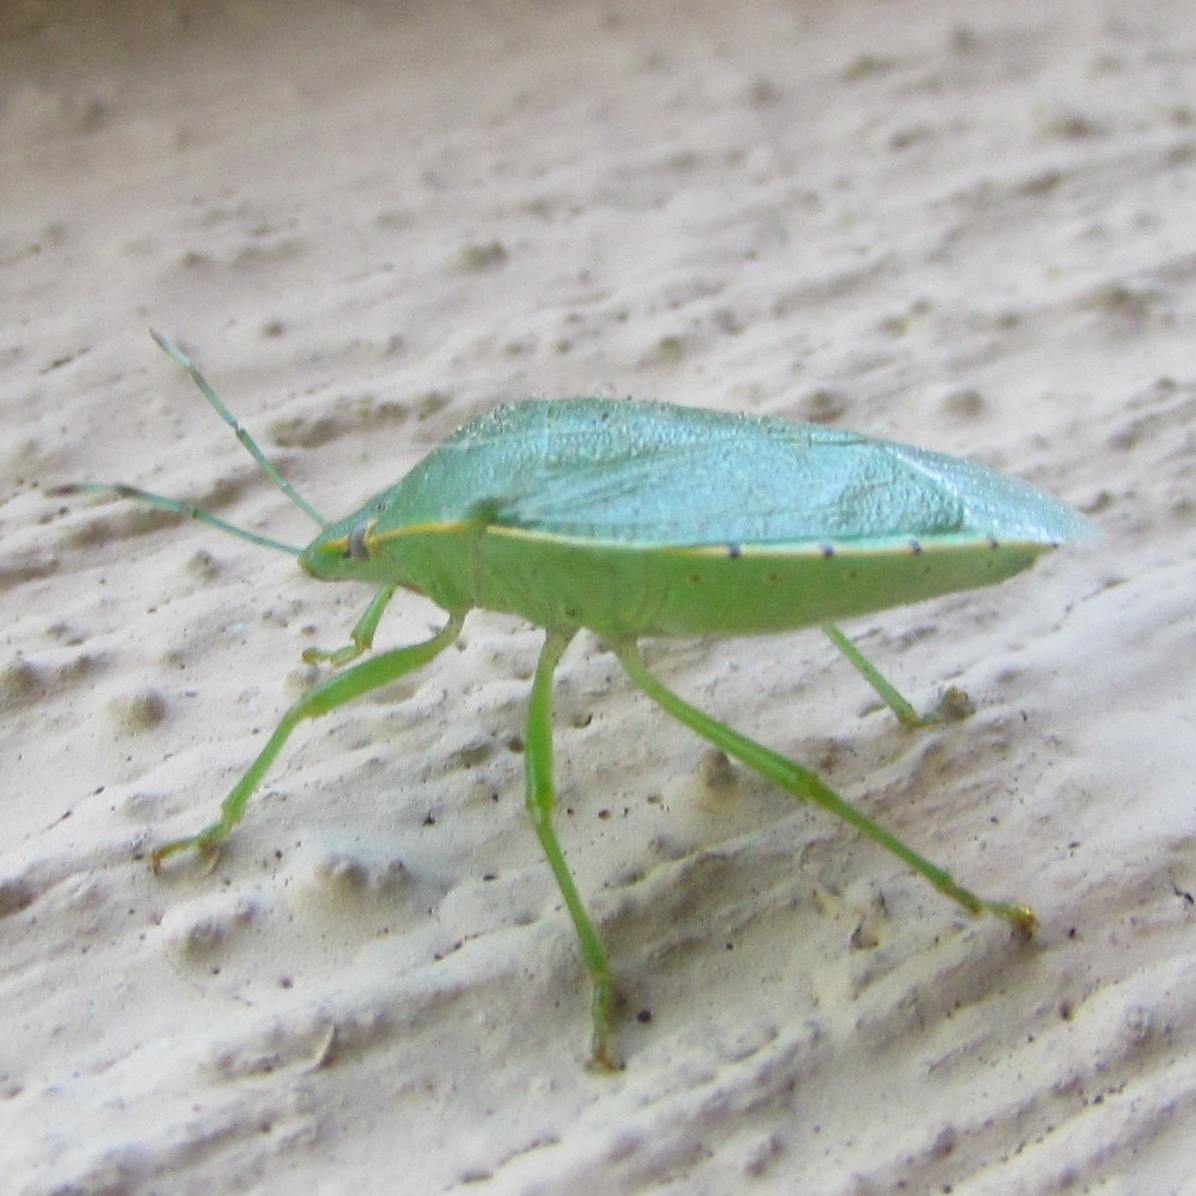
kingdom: Animalia
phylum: Arthropoda
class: Insecta
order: Hemiptera
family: Pentatomidae
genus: Chinavia
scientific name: Chinavia hilaris
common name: Green stink bug
